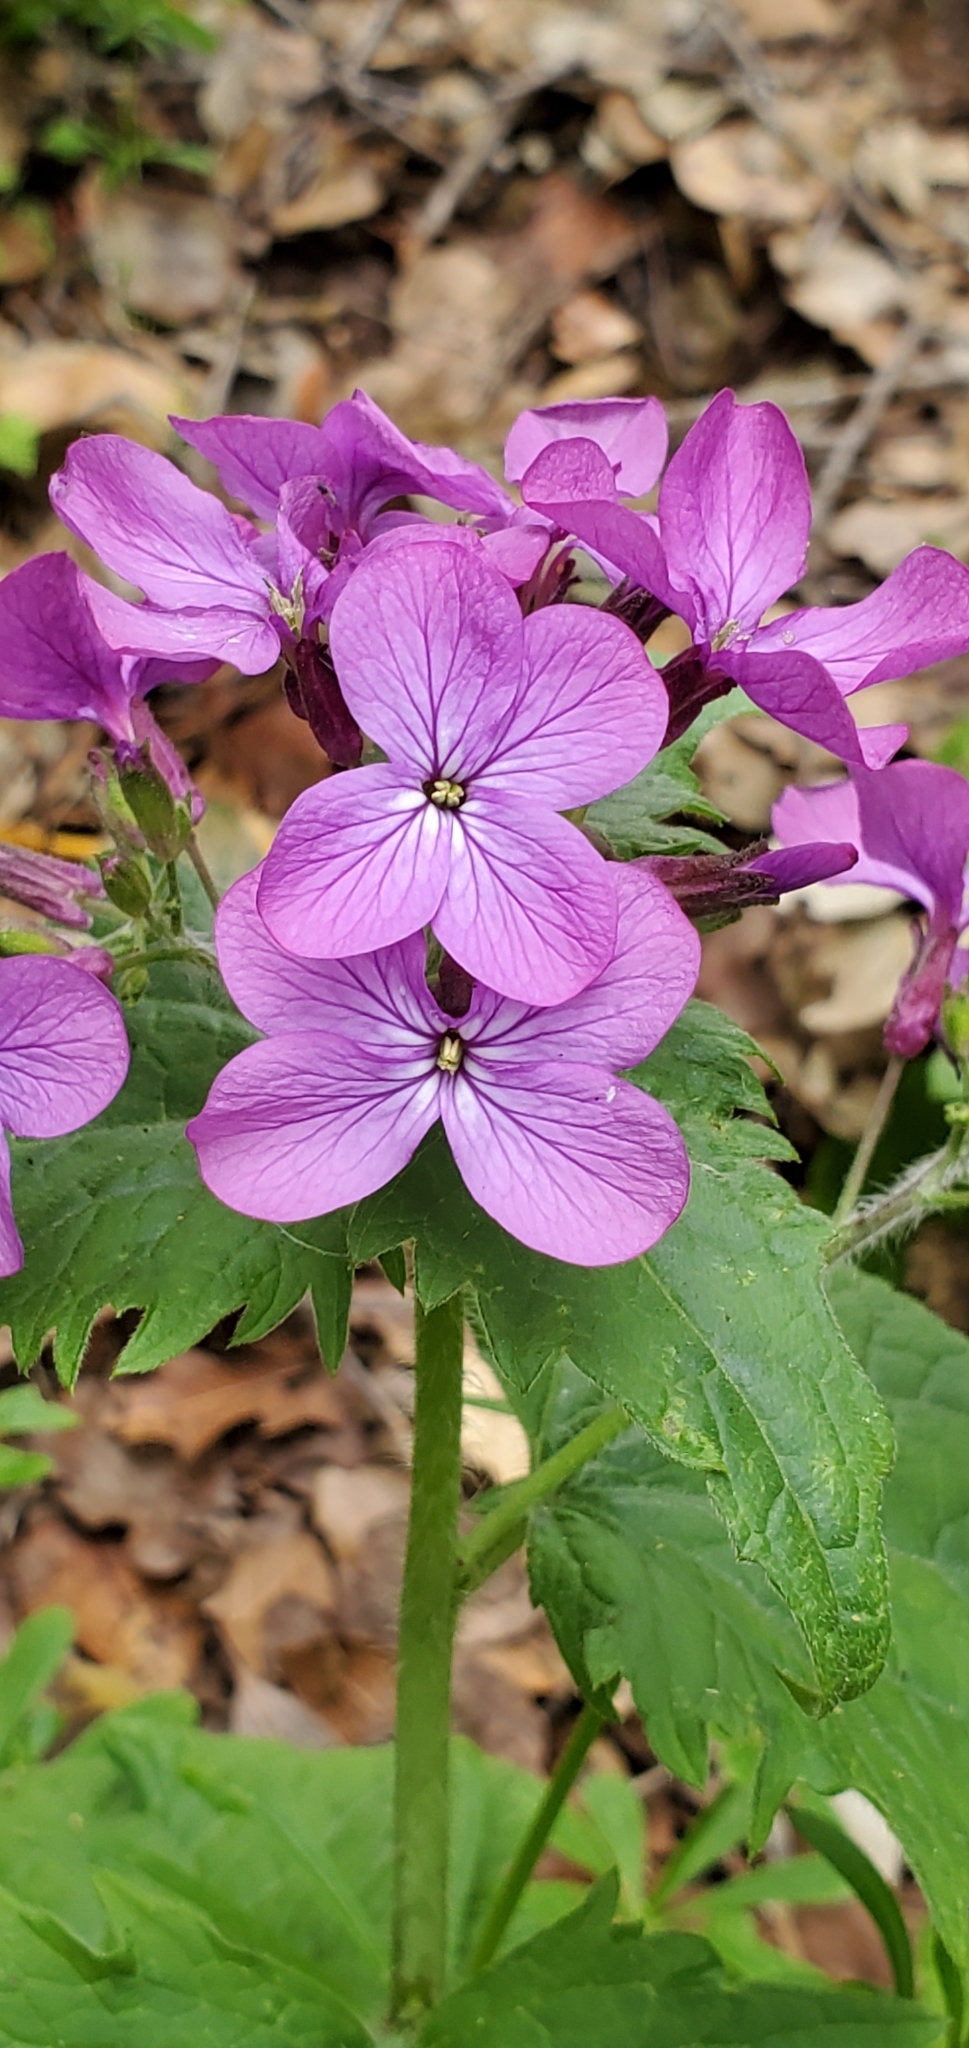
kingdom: Plantae
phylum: Tracheophyta
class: Magnoliopsida
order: Brassicales
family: Brassicaceae
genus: Lunaria
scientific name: Lunaria annua
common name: Honesty
